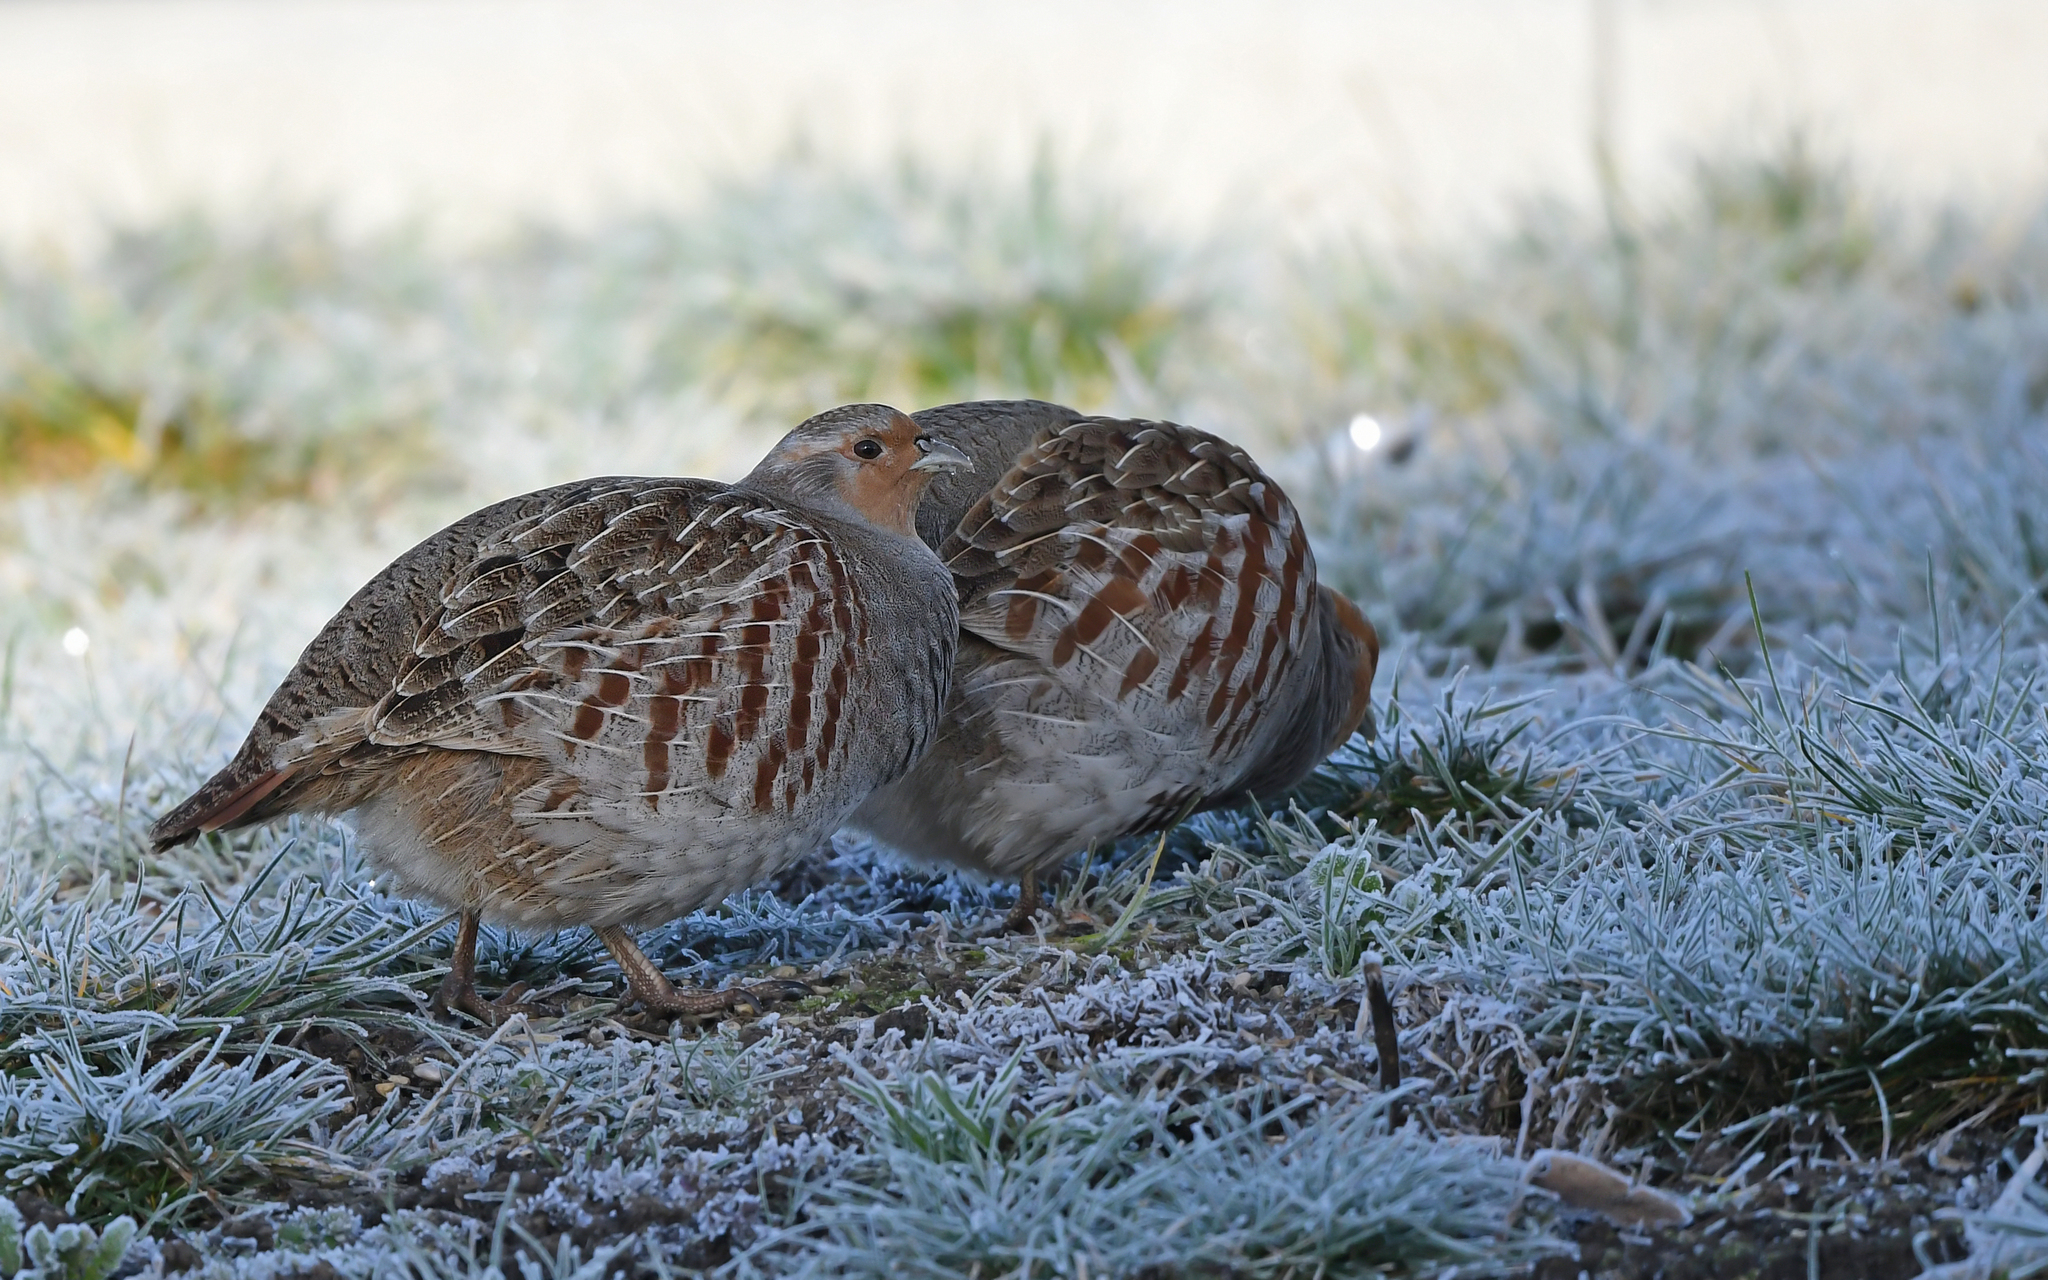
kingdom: Animalia
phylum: Chordata
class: Aves
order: Galliformes
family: Phasianidae
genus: Perdix
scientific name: Perdix perdix
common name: Grey partridge
